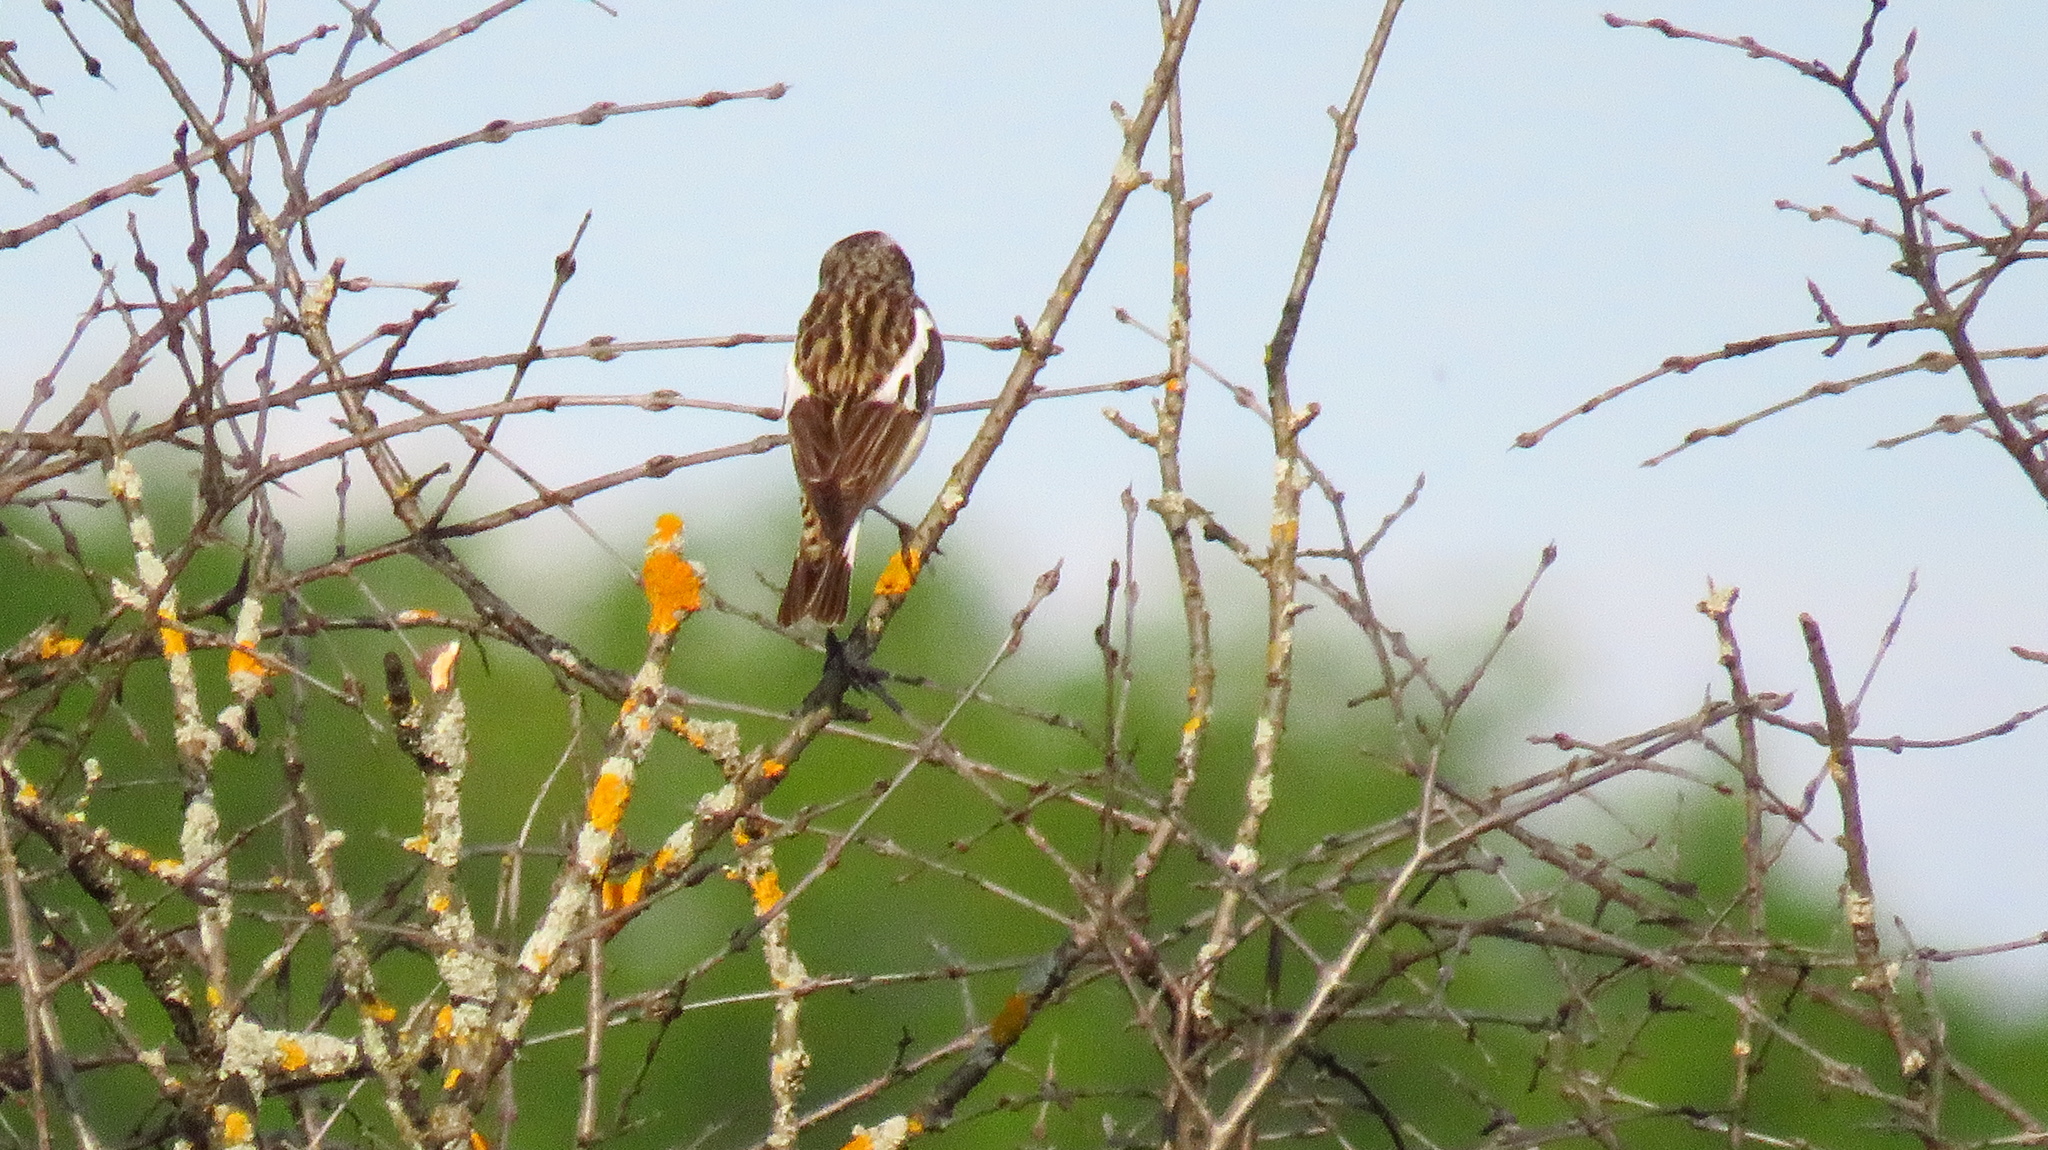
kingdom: Animalia
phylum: Chordata
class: Aves
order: Passeriformes
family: Muscicapidae
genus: Saxicola
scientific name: Saxicola rubetra
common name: Whinchat
